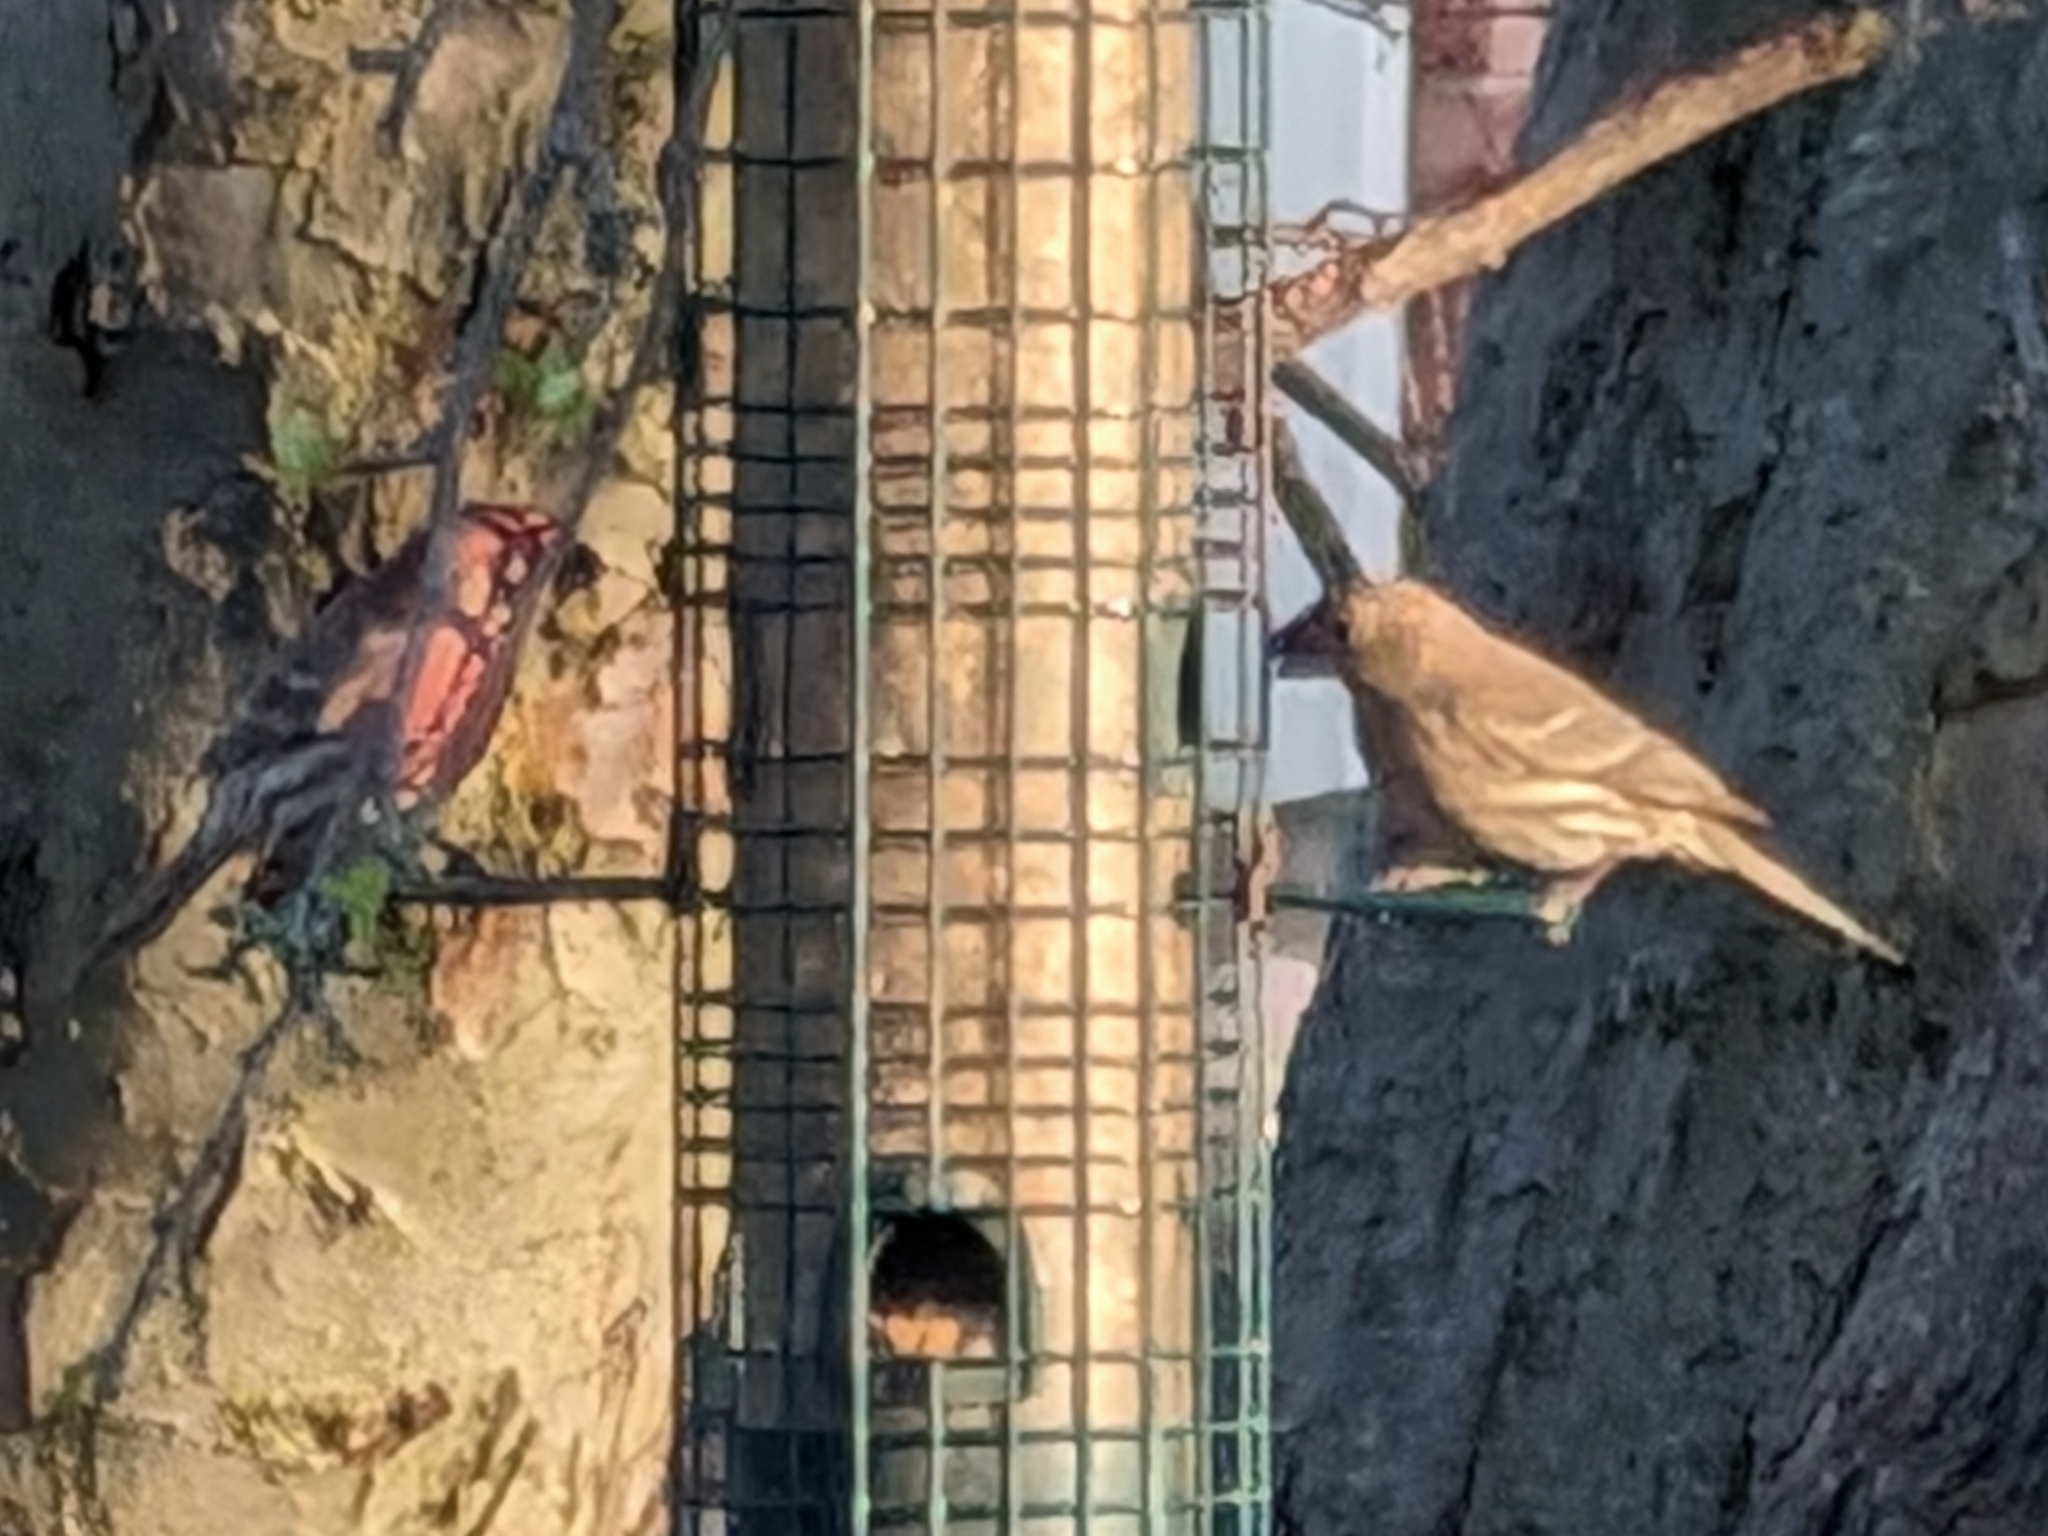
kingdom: Animalia
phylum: Chordata
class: Aves
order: Passeriformes
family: Fringillidae
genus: Haemorhous
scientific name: Haemorhous mexicanus
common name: House finch
